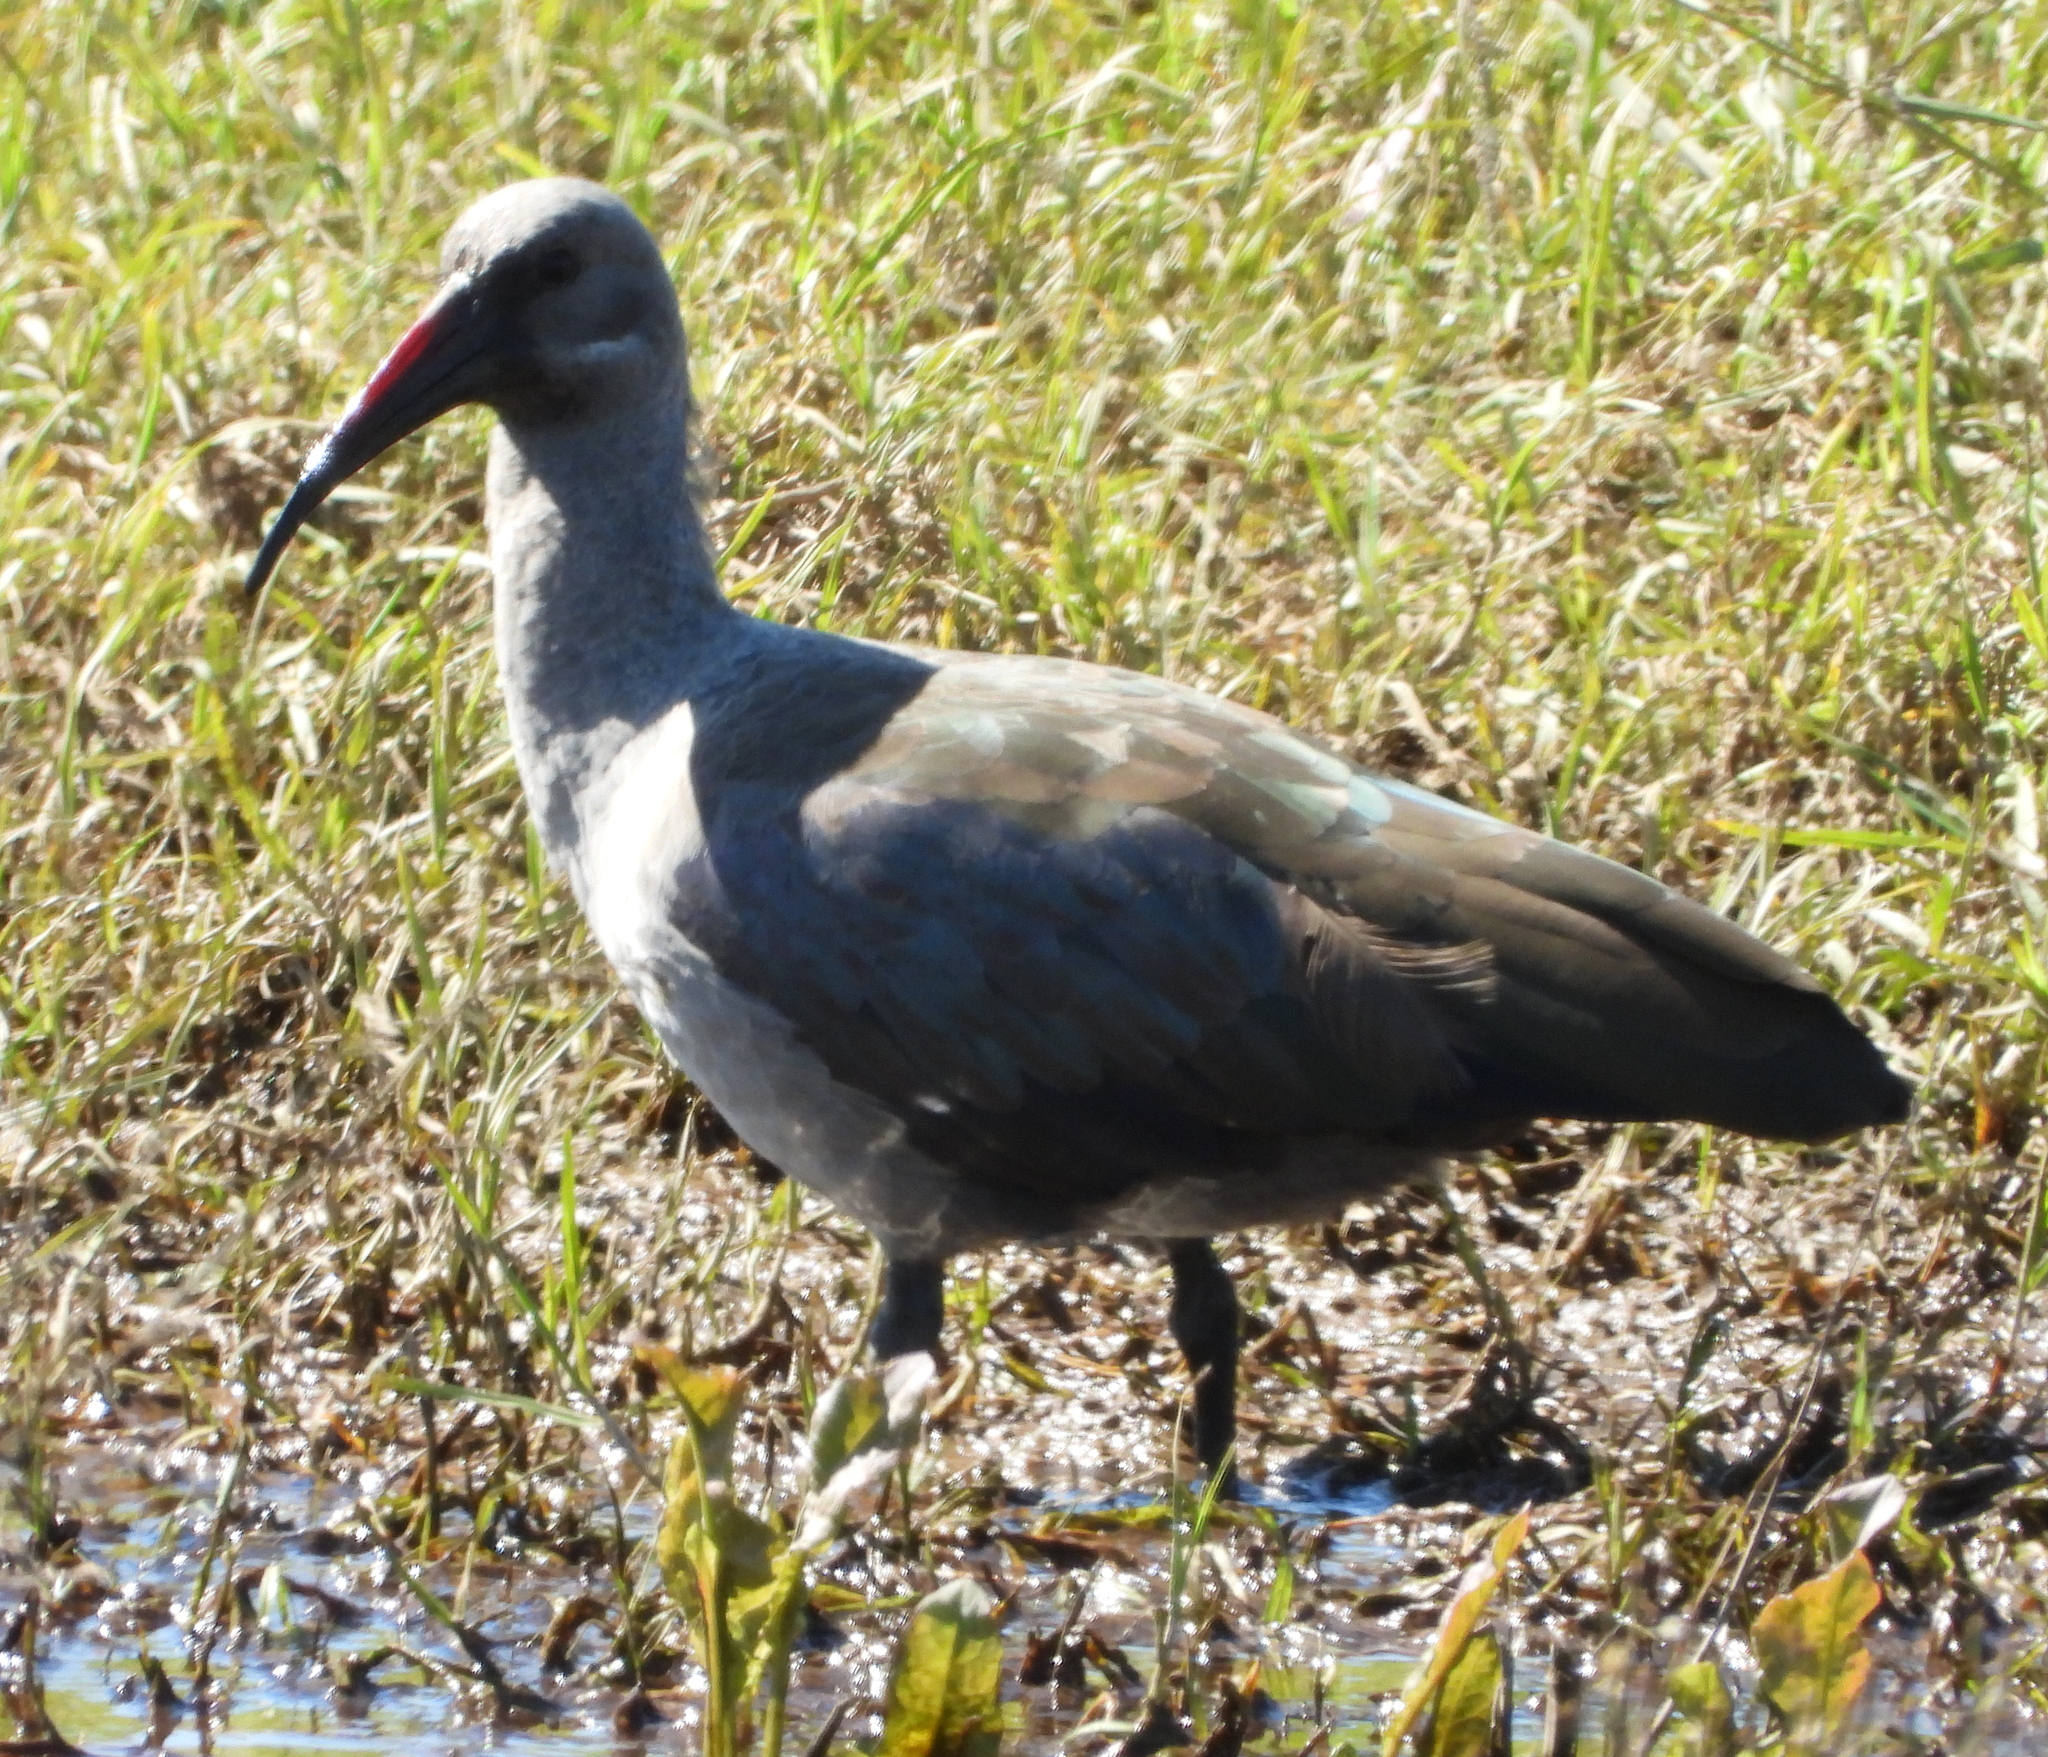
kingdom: Animalia
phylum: Chordata
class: Aves
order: Pelecaniformes
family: Threskiornithidae
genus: Bostrychia
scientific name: Bostrychia hagedash
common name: Hadada ibis
